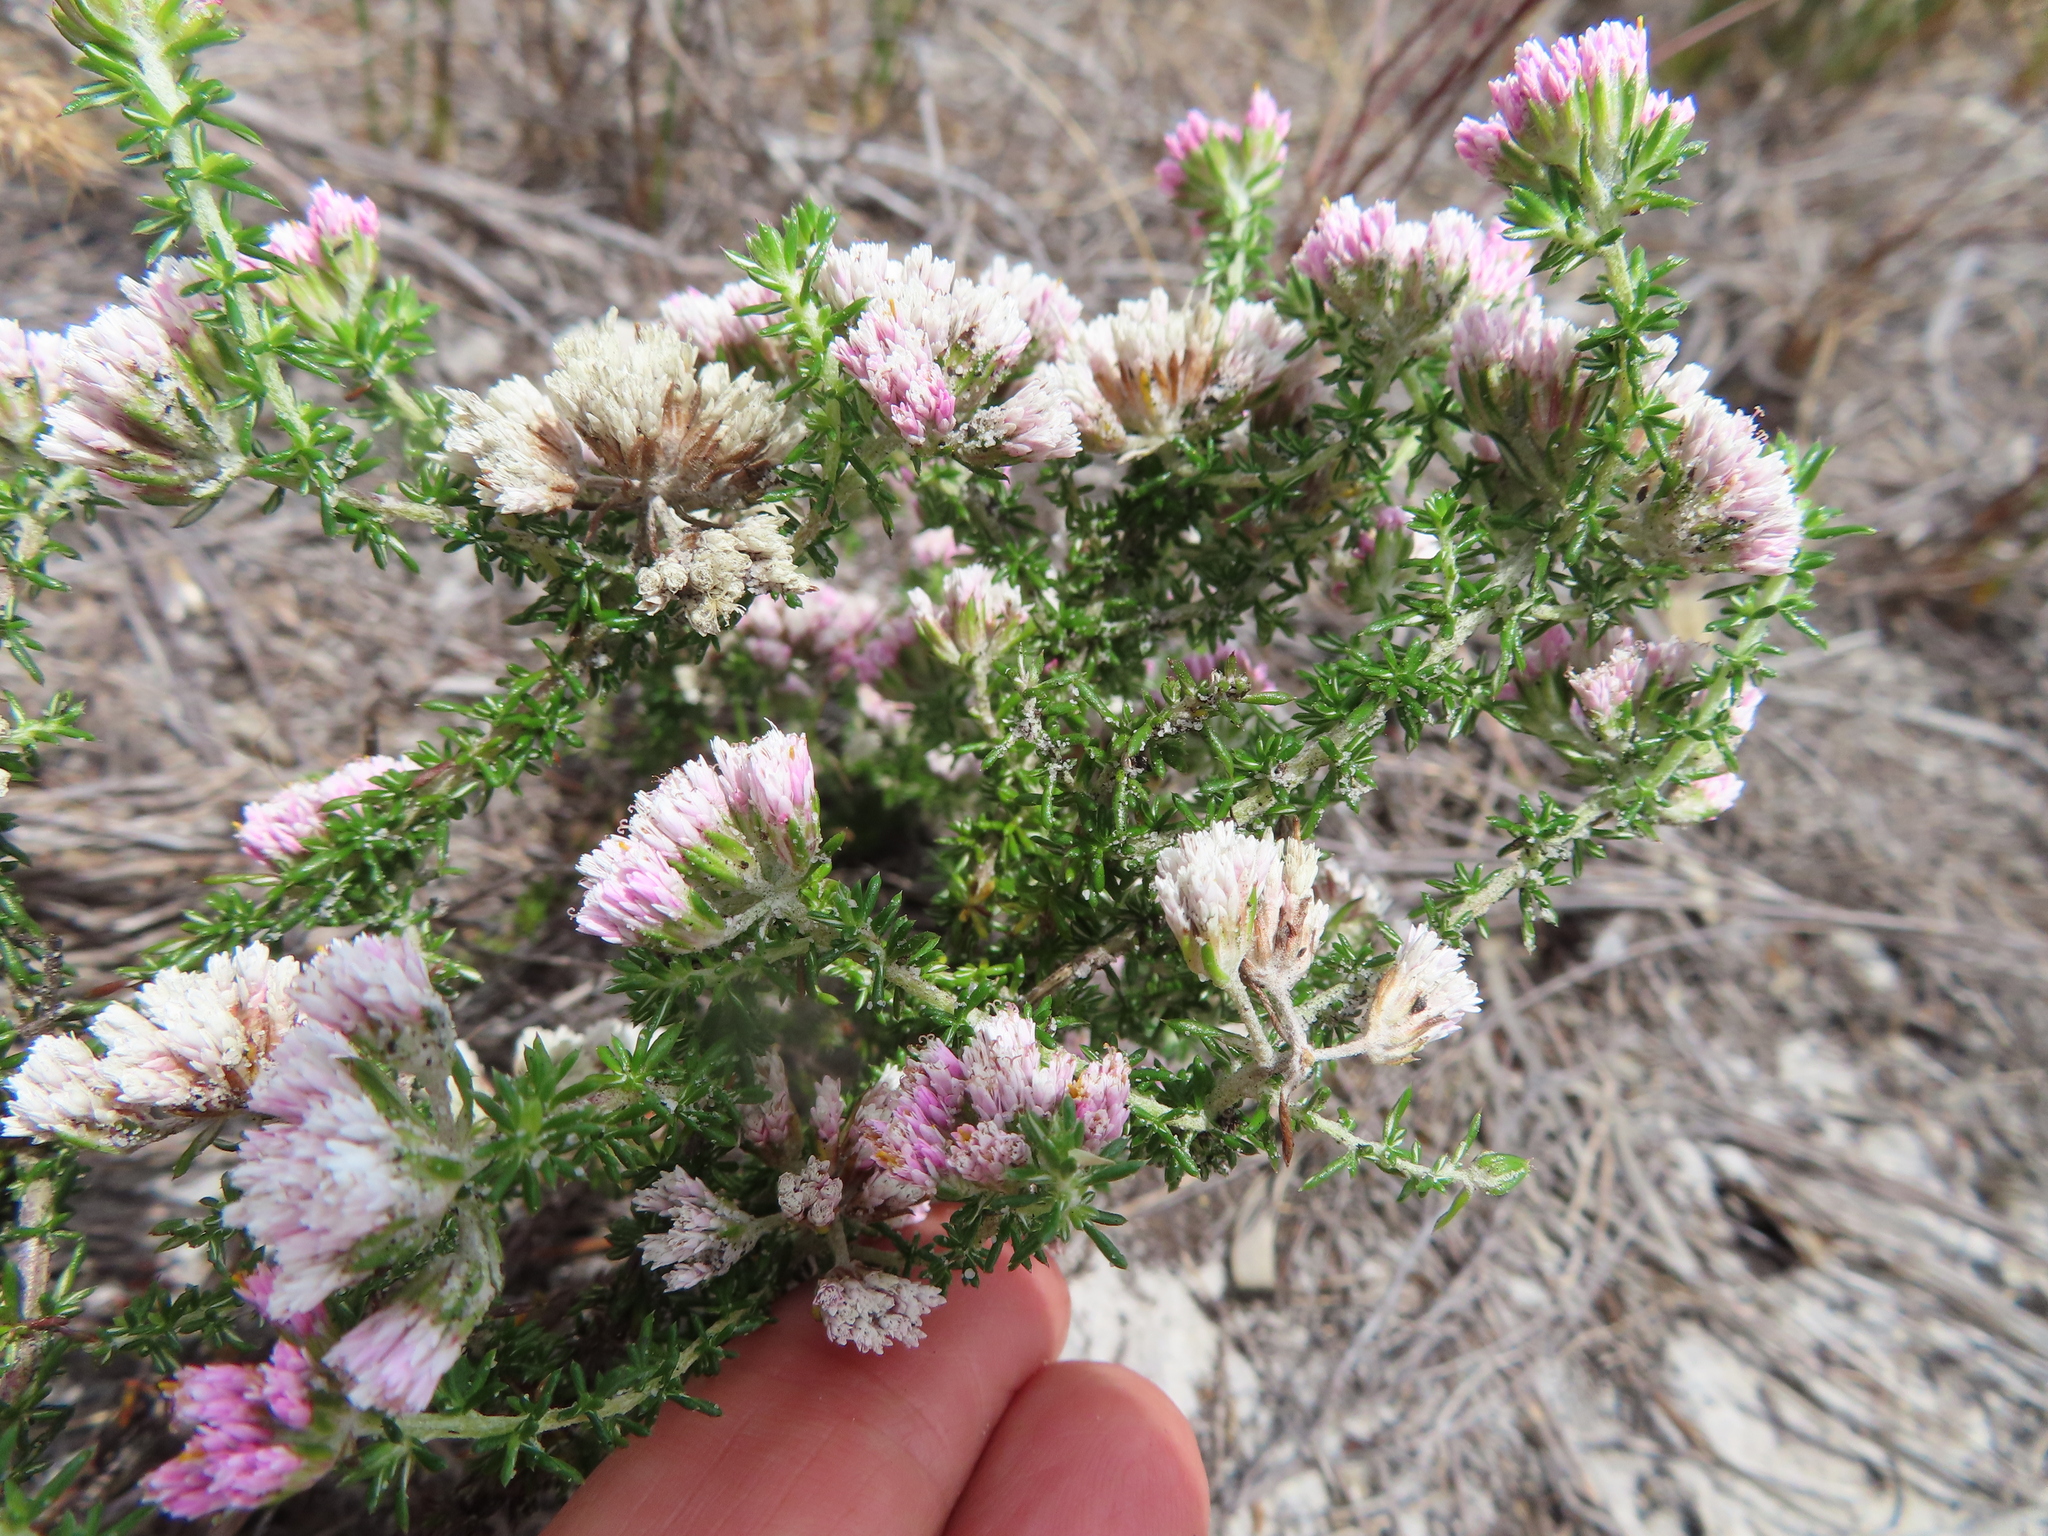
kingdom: Plantae
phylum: Tracheophyta
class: Magnoliopsida
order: Asterales
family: Asteraceae
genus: Metalasia
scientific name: Metalasia erubescens
